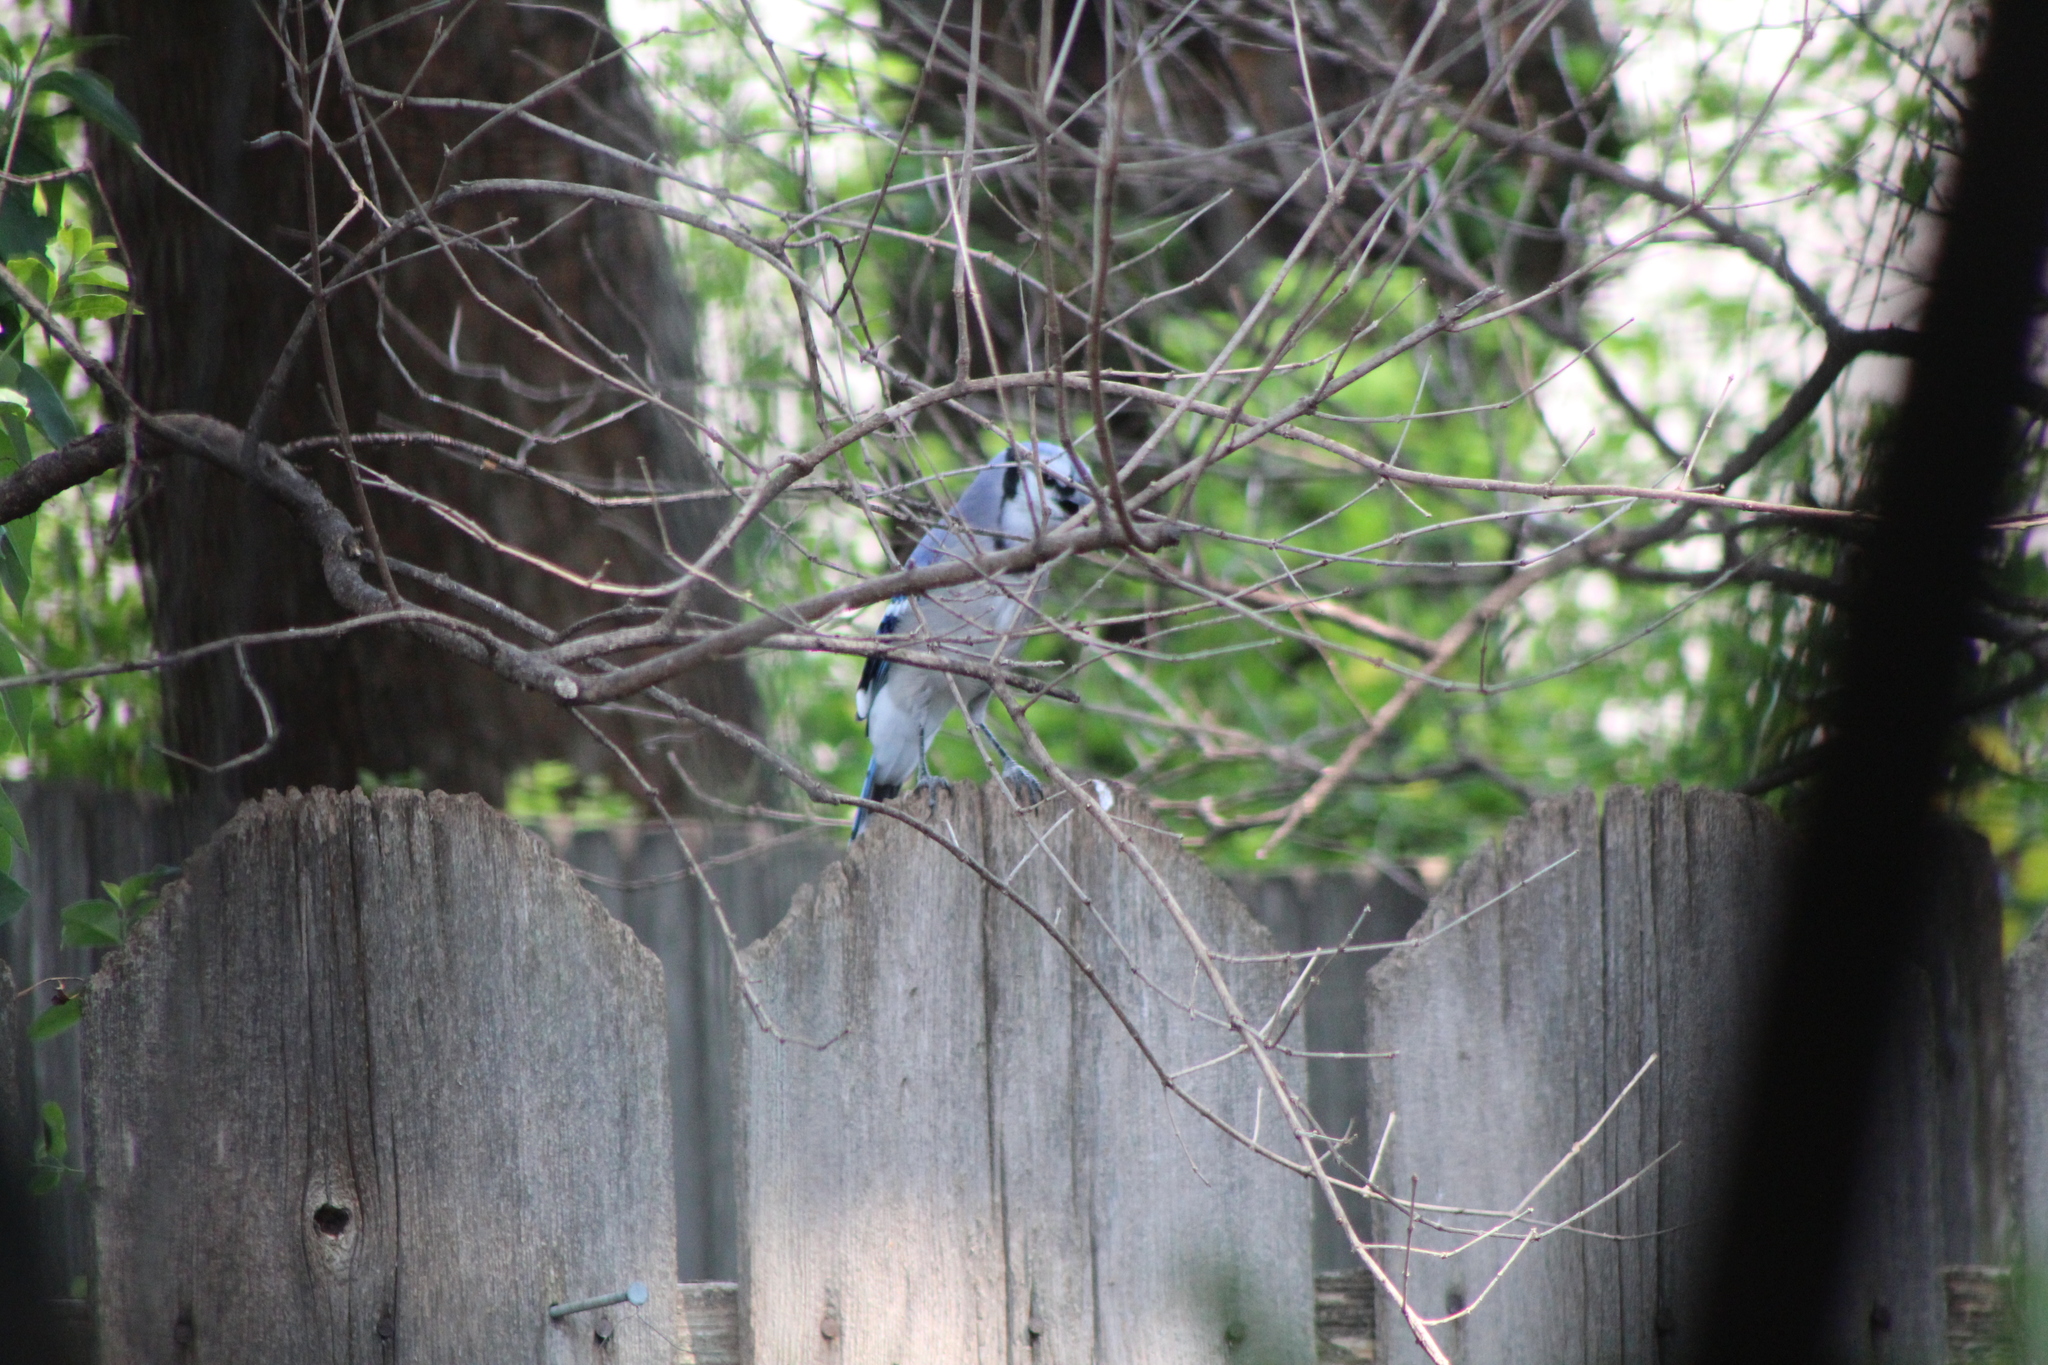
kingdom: Animalia
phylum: Chordata
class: Aves
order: Passeriformes
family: Corvidae
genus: Cyanocitta
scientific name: Cyanocitta cristata
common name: Blue jay
